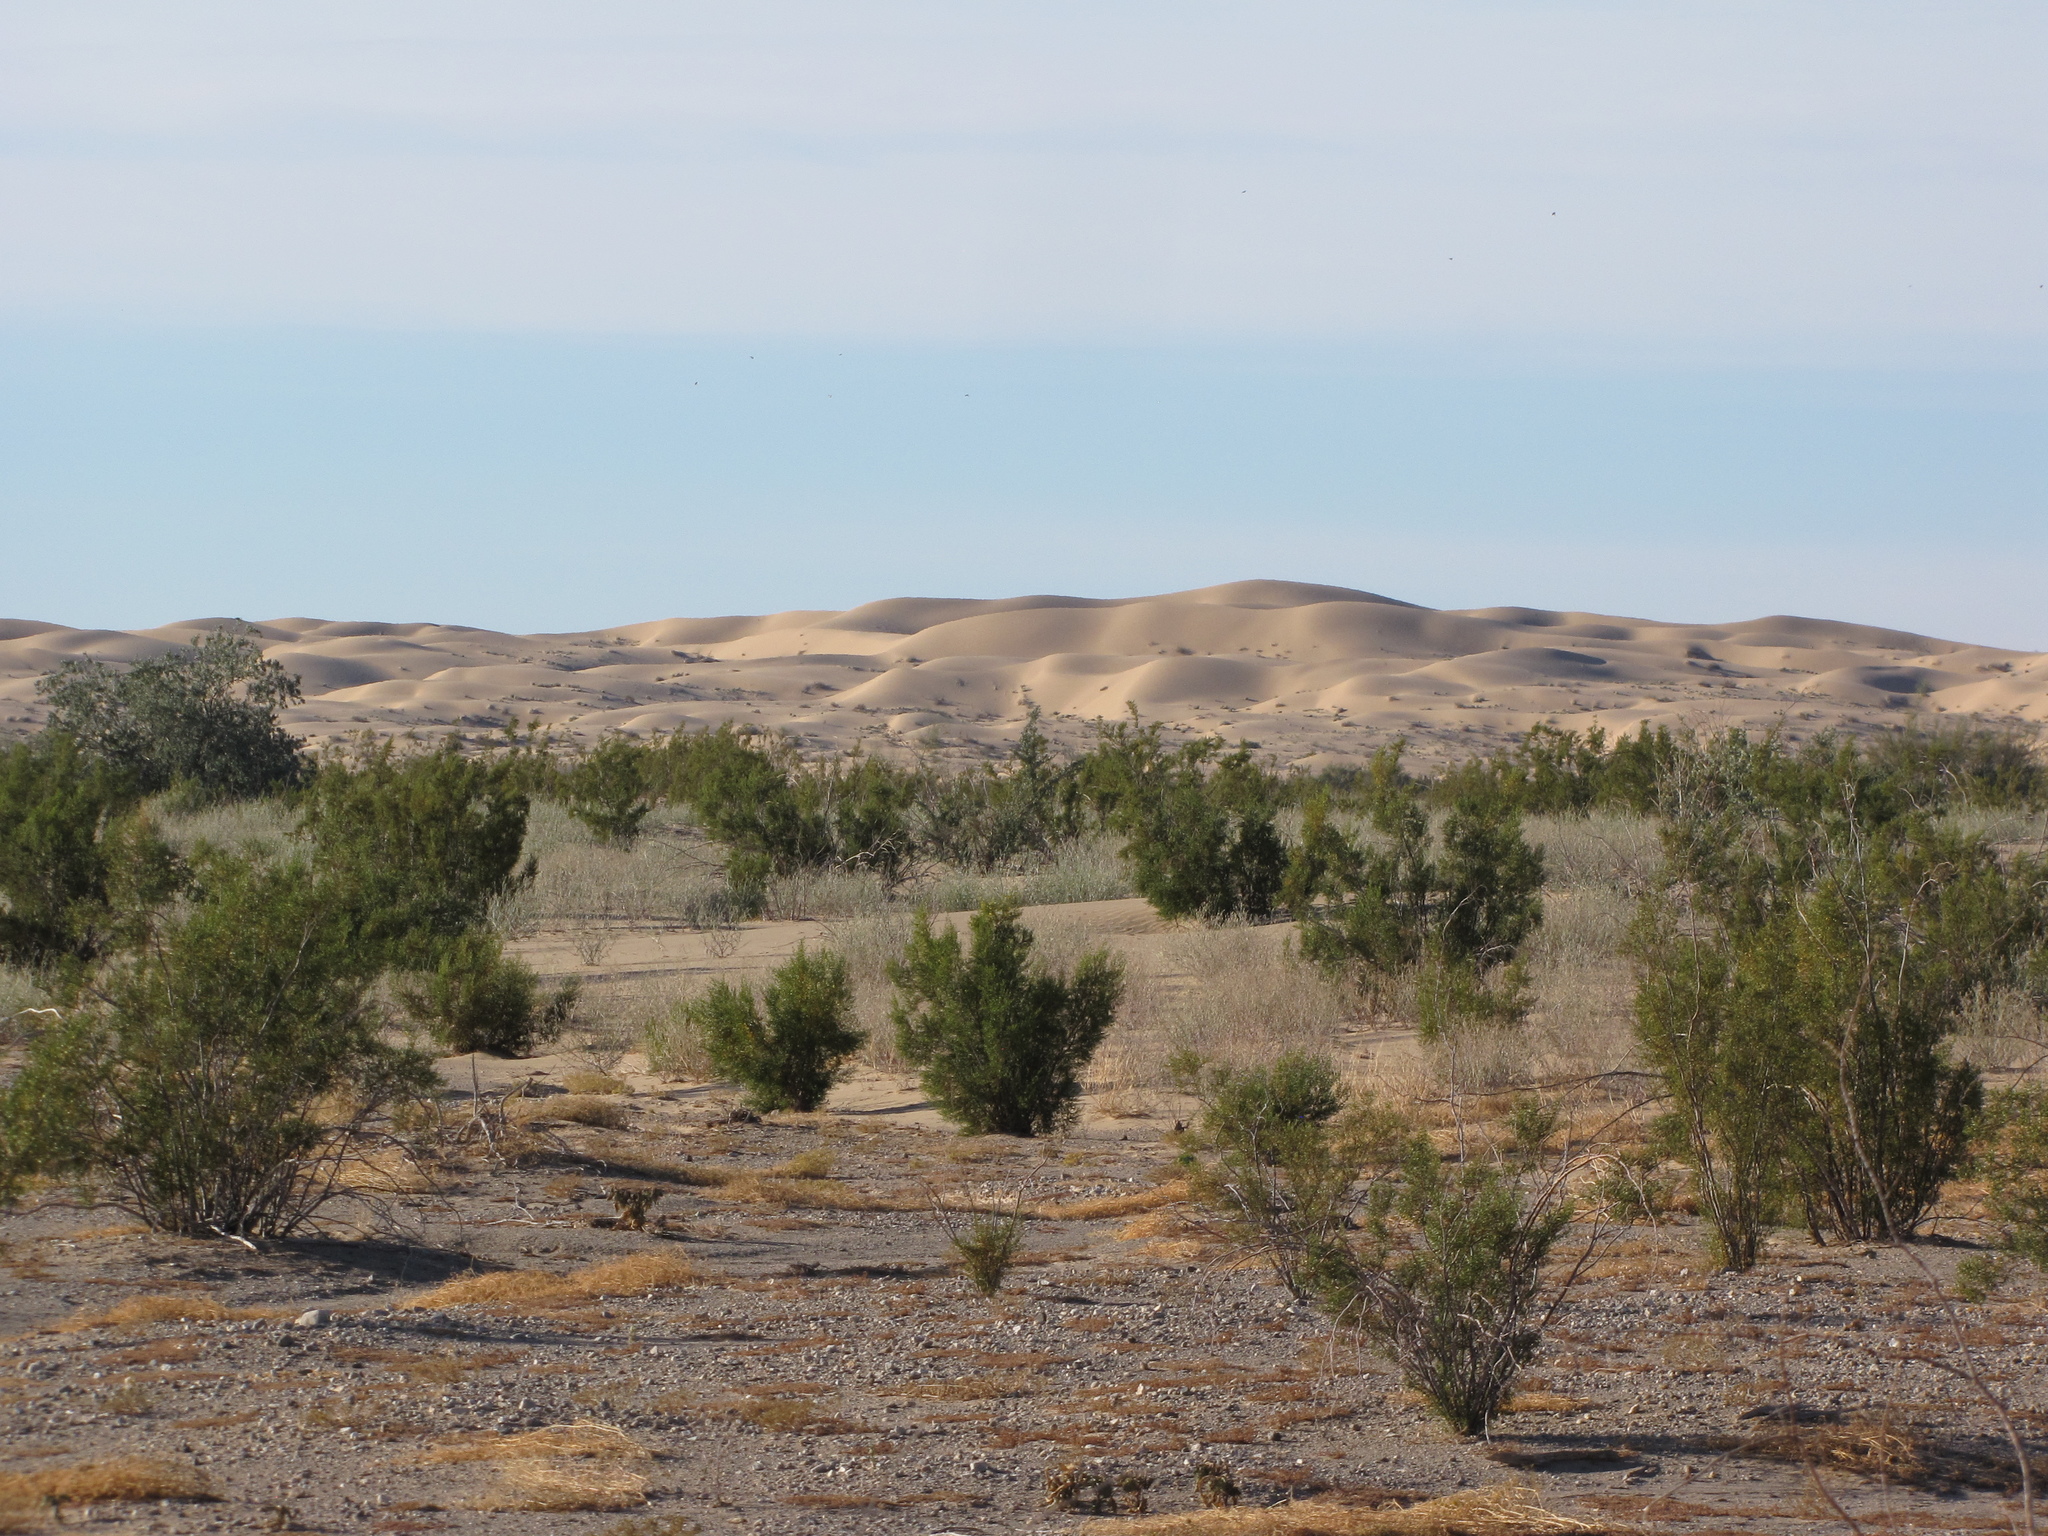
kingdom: Plantae
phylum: Tracheophyta
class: Magnoliopsida
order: Zygophyllales
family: Zygophyllaceae
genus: Larrea
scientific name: Larrea tridentata
